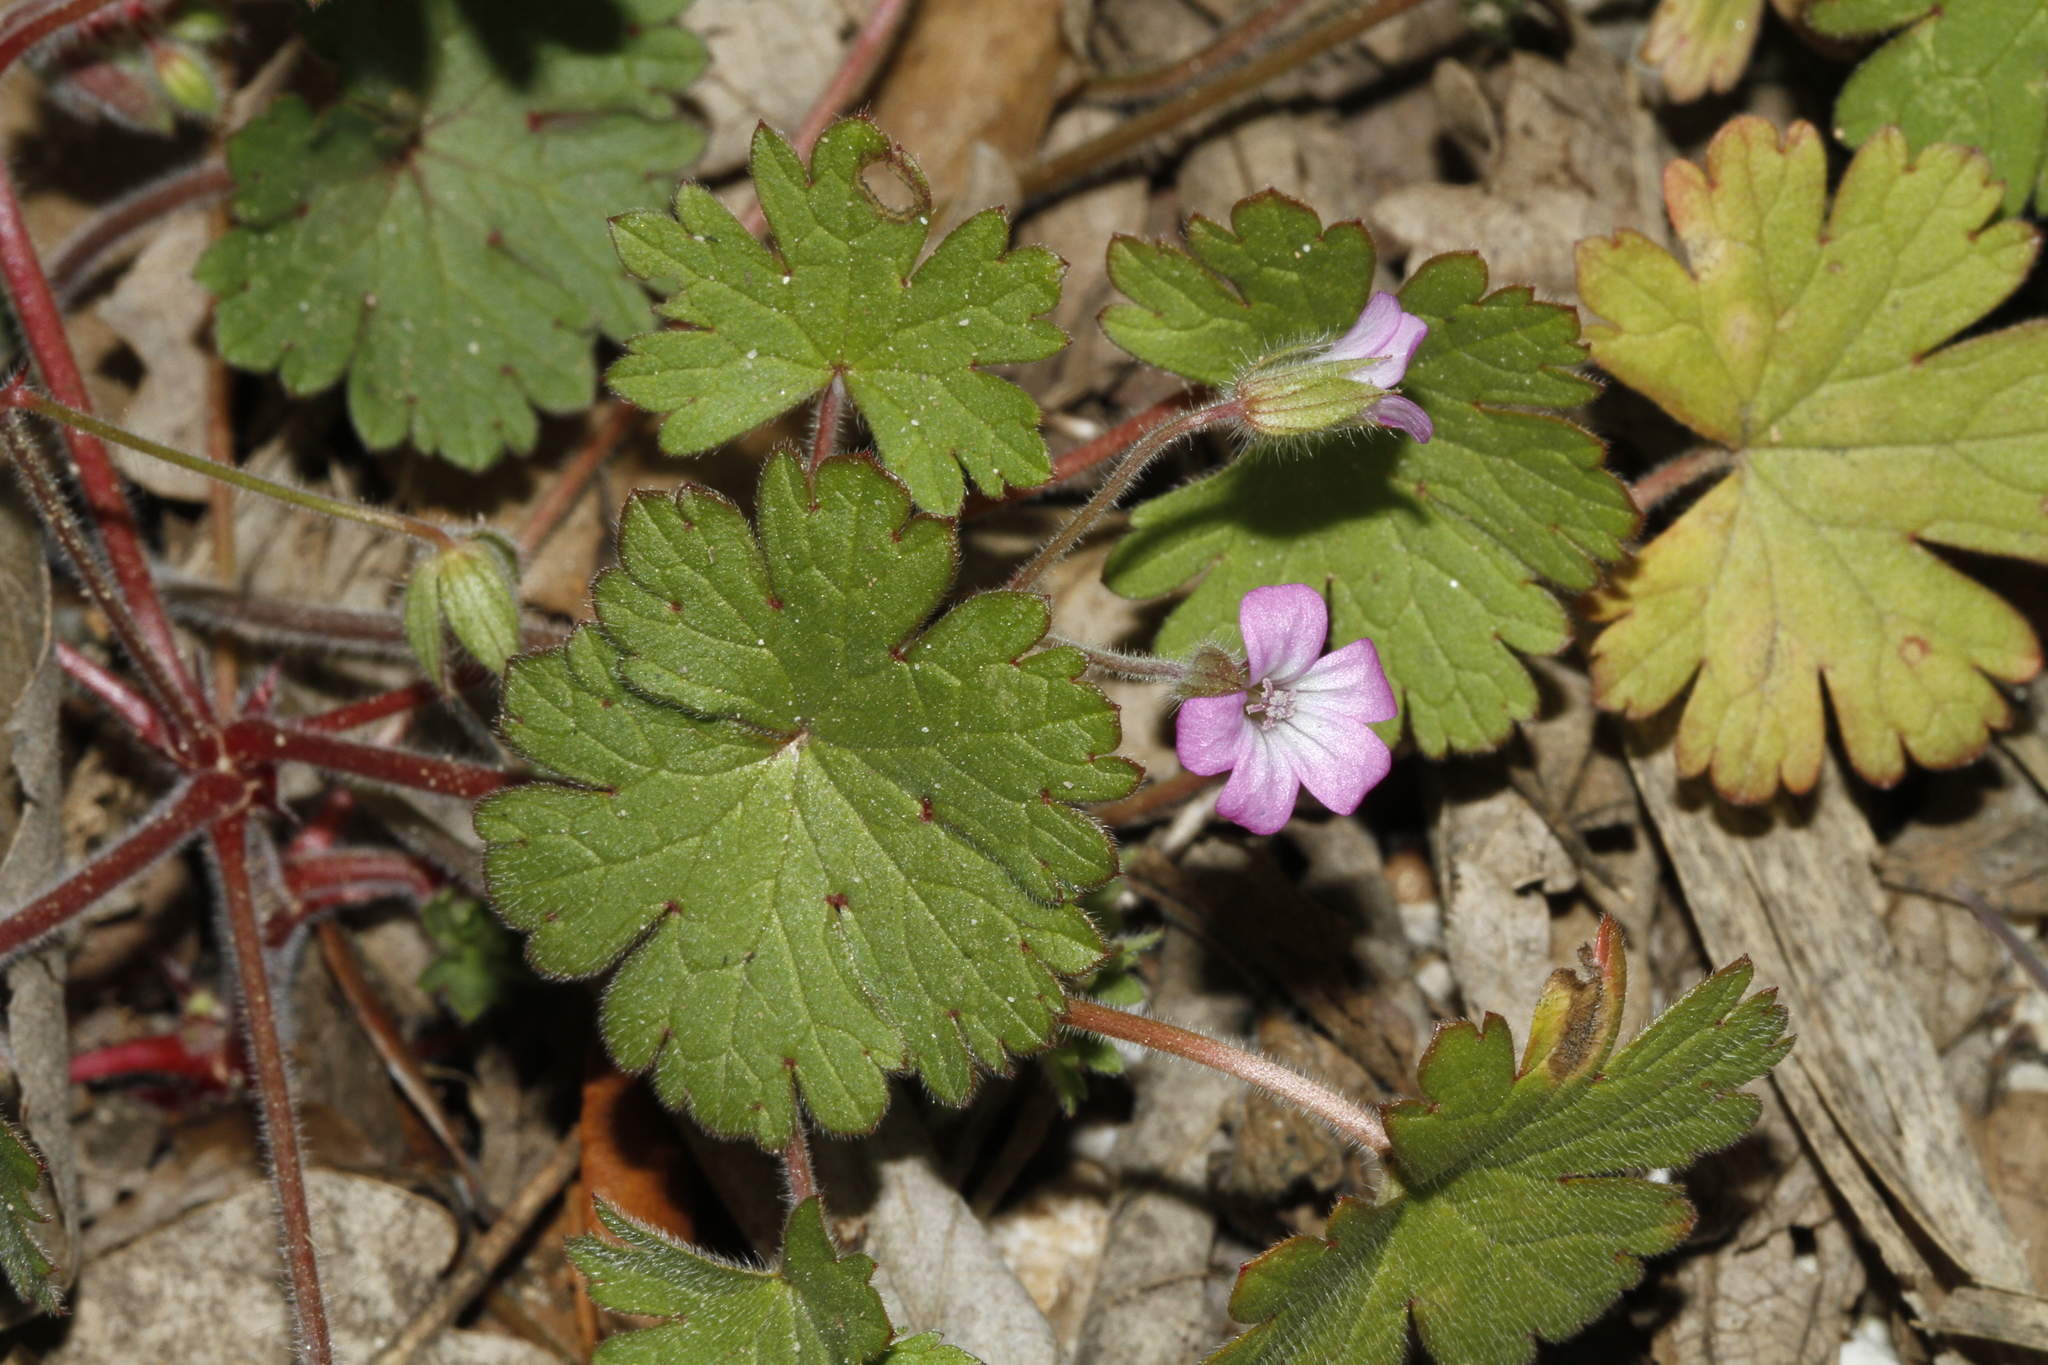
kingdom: Plantae
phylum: Tracheophyta
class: Magnoliopsida
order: Geraniales
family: Geraniaceae
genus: Geranium
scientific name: Geranium rotundifolium
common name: Round-leaved crane's-bill
